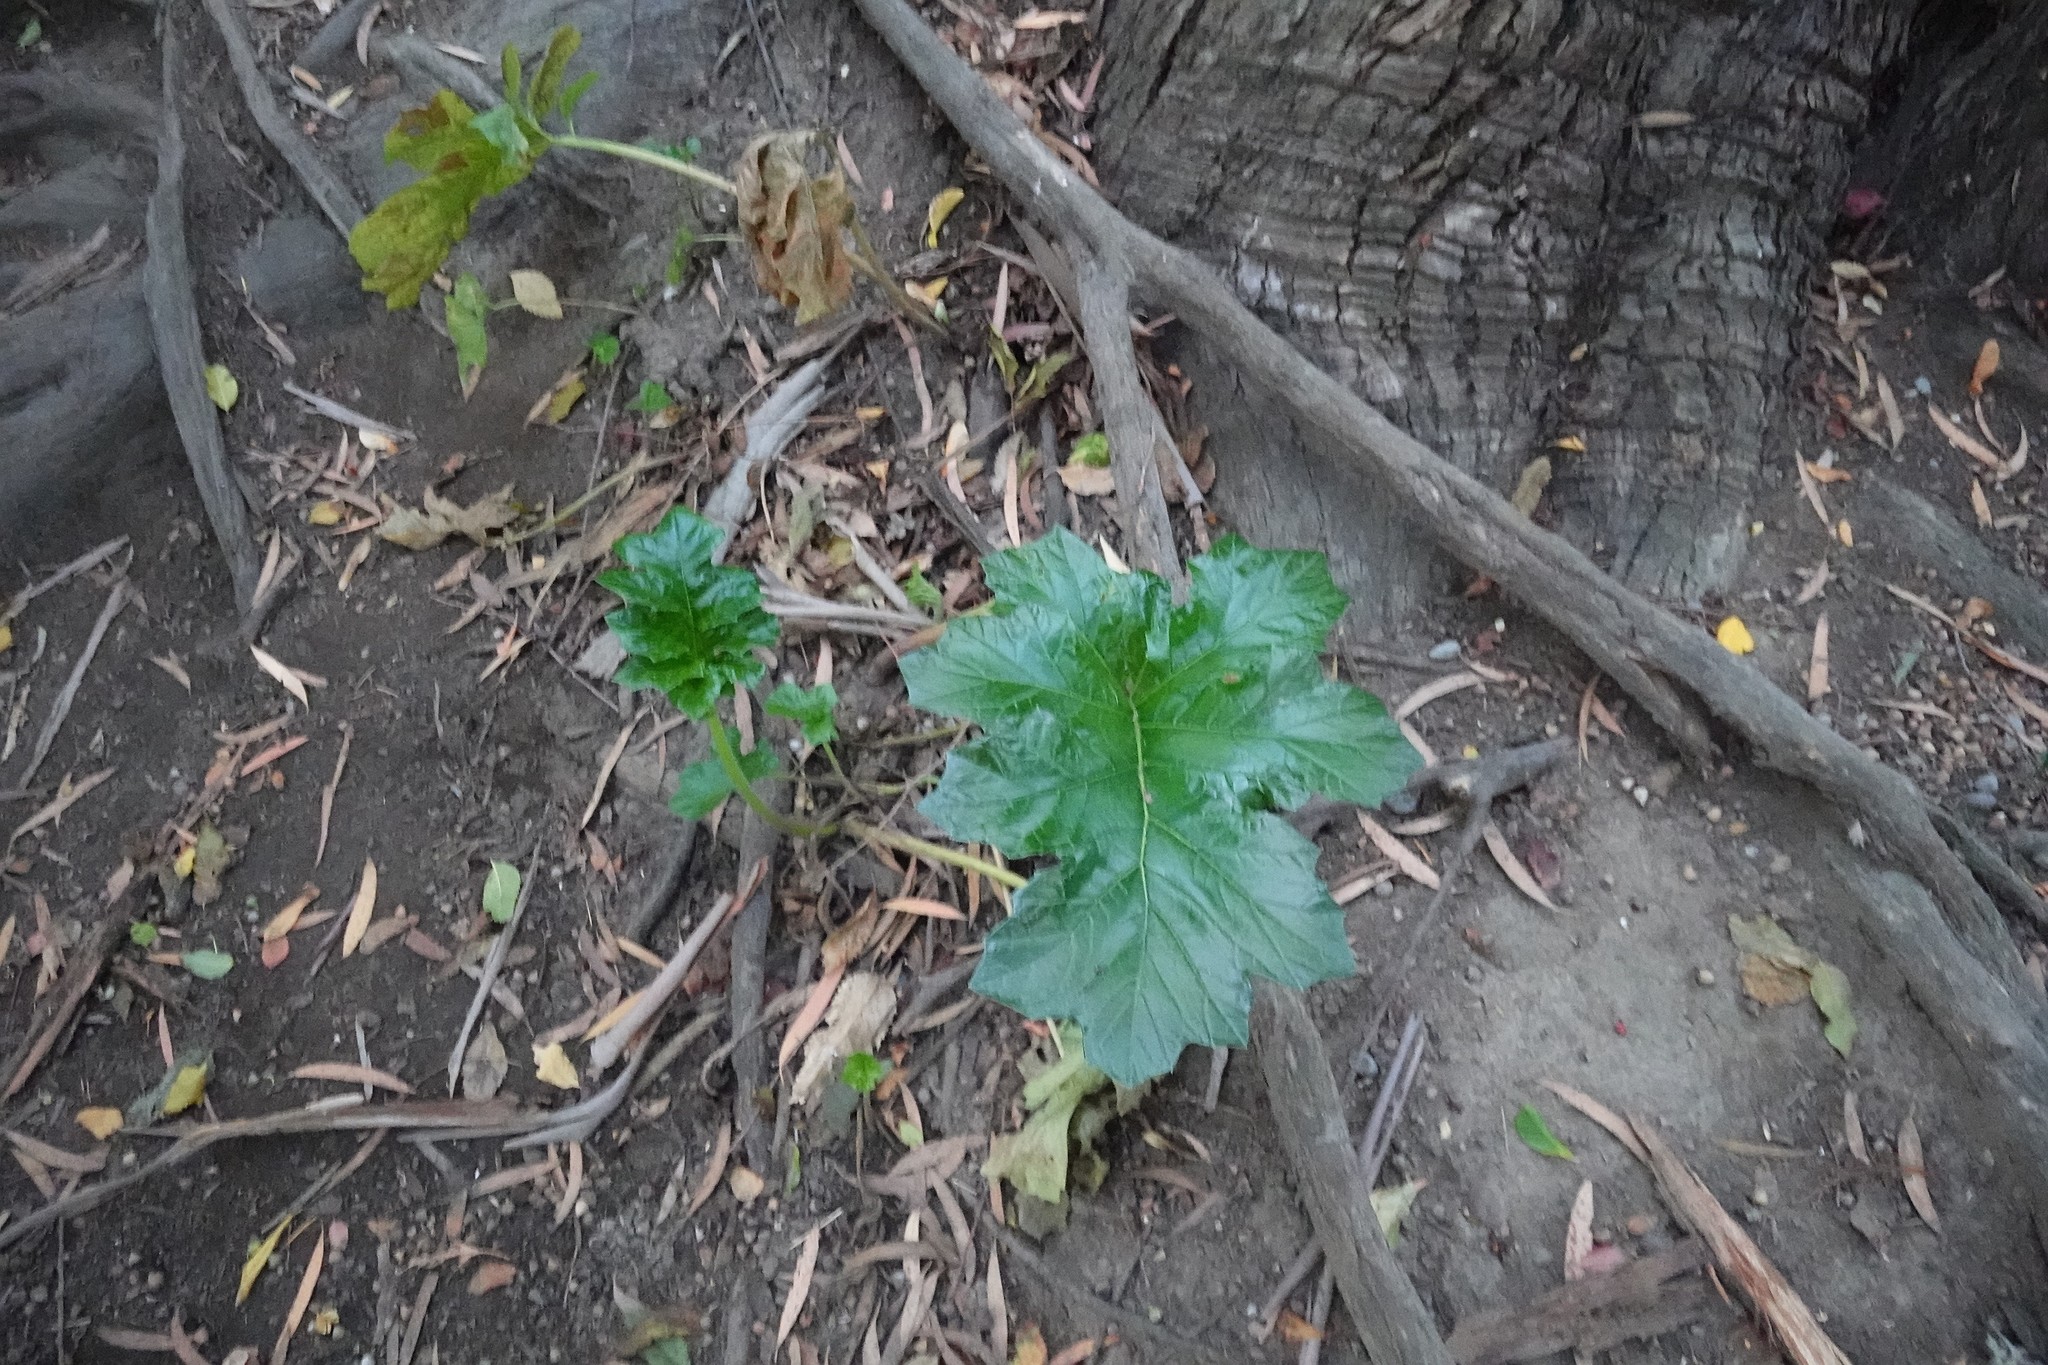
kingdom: Plantae
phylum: Tracheophyta
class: Magnoliopsida
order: Lamiales
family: Acanthaceae
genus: Acanthus
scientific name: Acanthus mollis
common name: Bear's-breech
